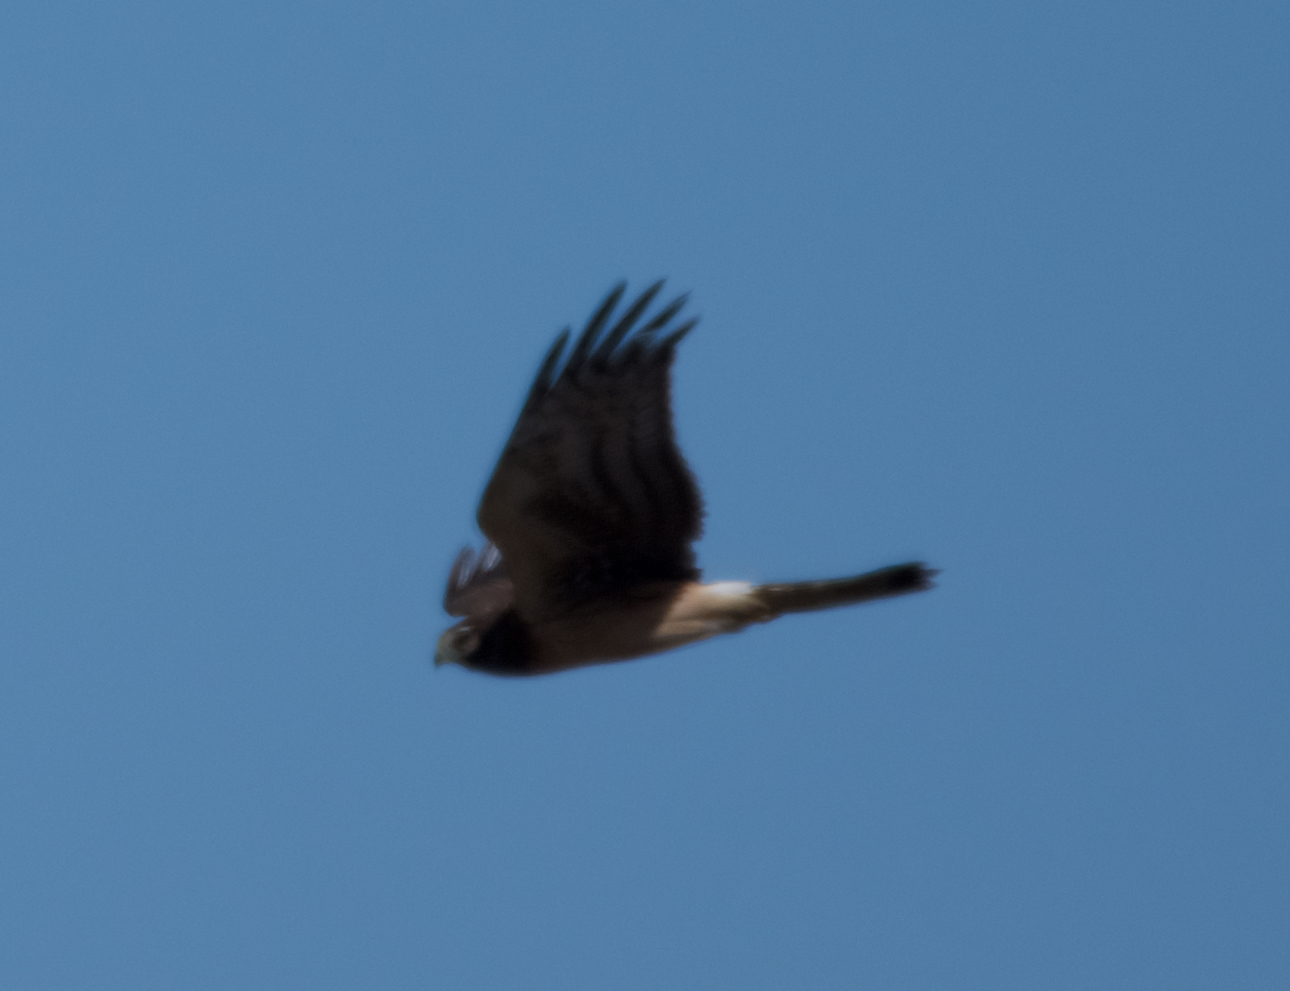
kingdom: Animalia
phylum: Chordata
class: Aves
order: Accipitriformes
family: Accipitridae
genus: Circus
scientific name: Circus cyaneus
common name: Hen harrier
